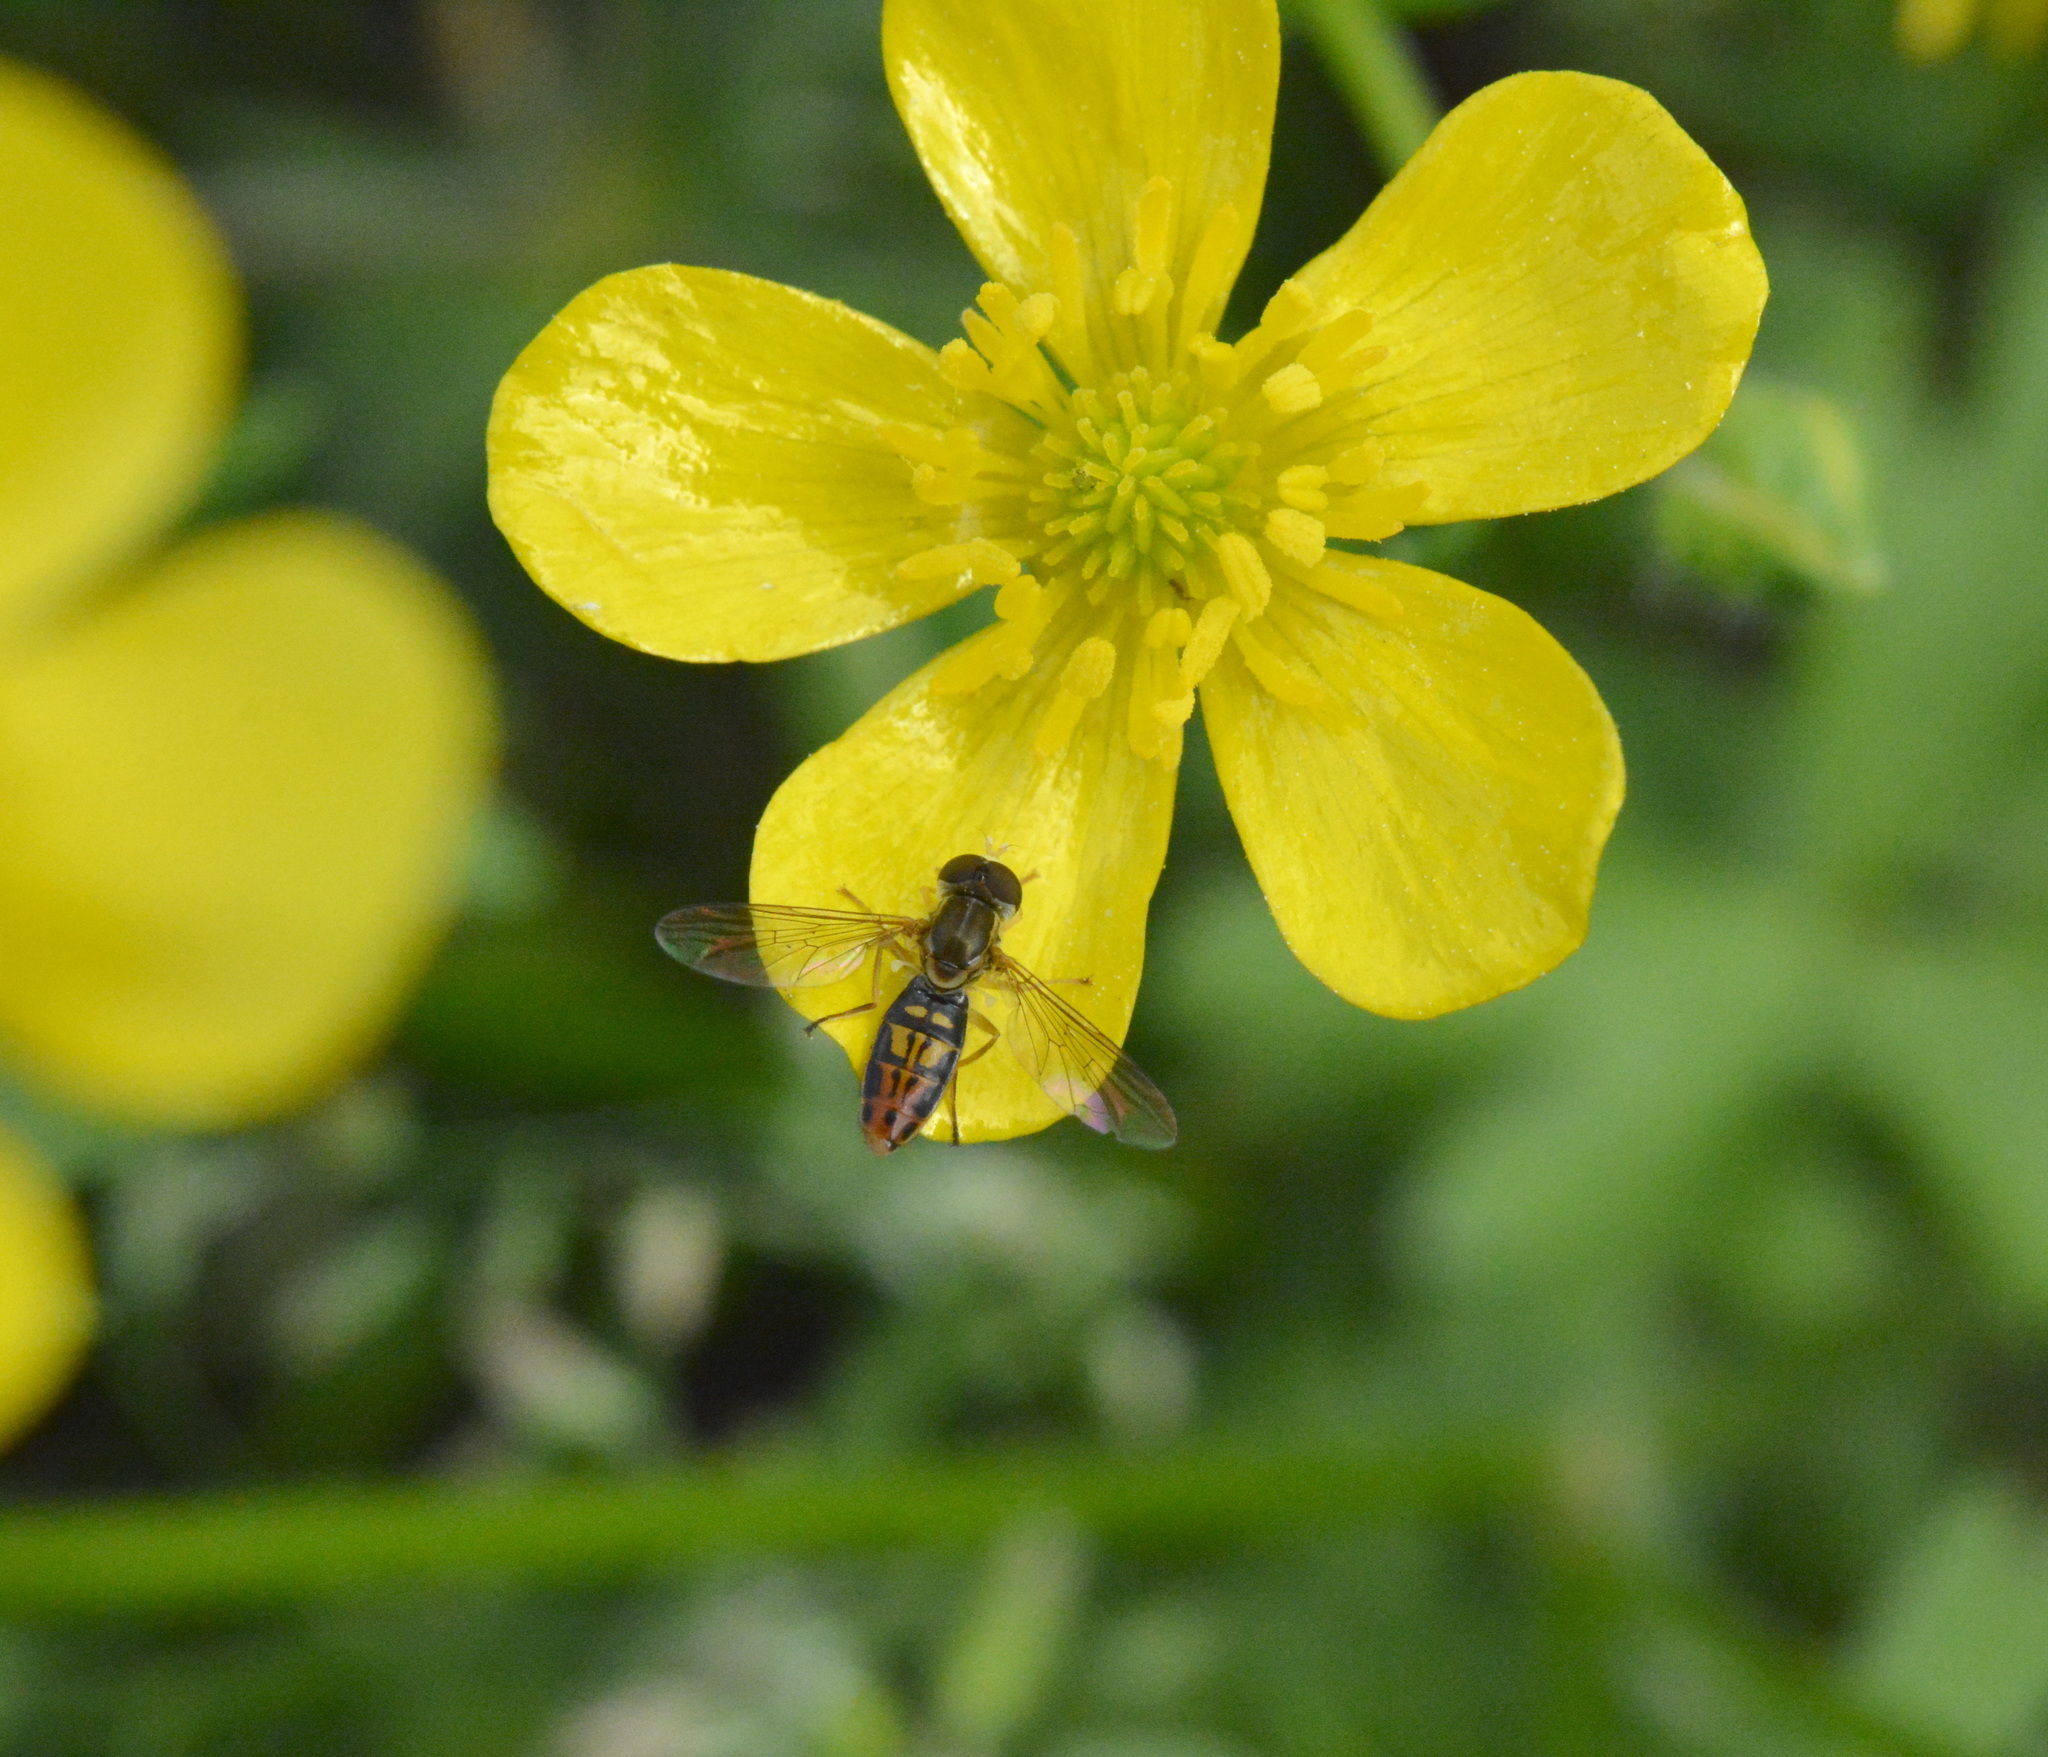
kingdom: Animalia
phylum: Arthropoda
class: Insecta
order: Diptera
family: Syrphidae
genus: Toxomerus
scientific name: Toxomerus marginatus
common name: Syrphid fly
